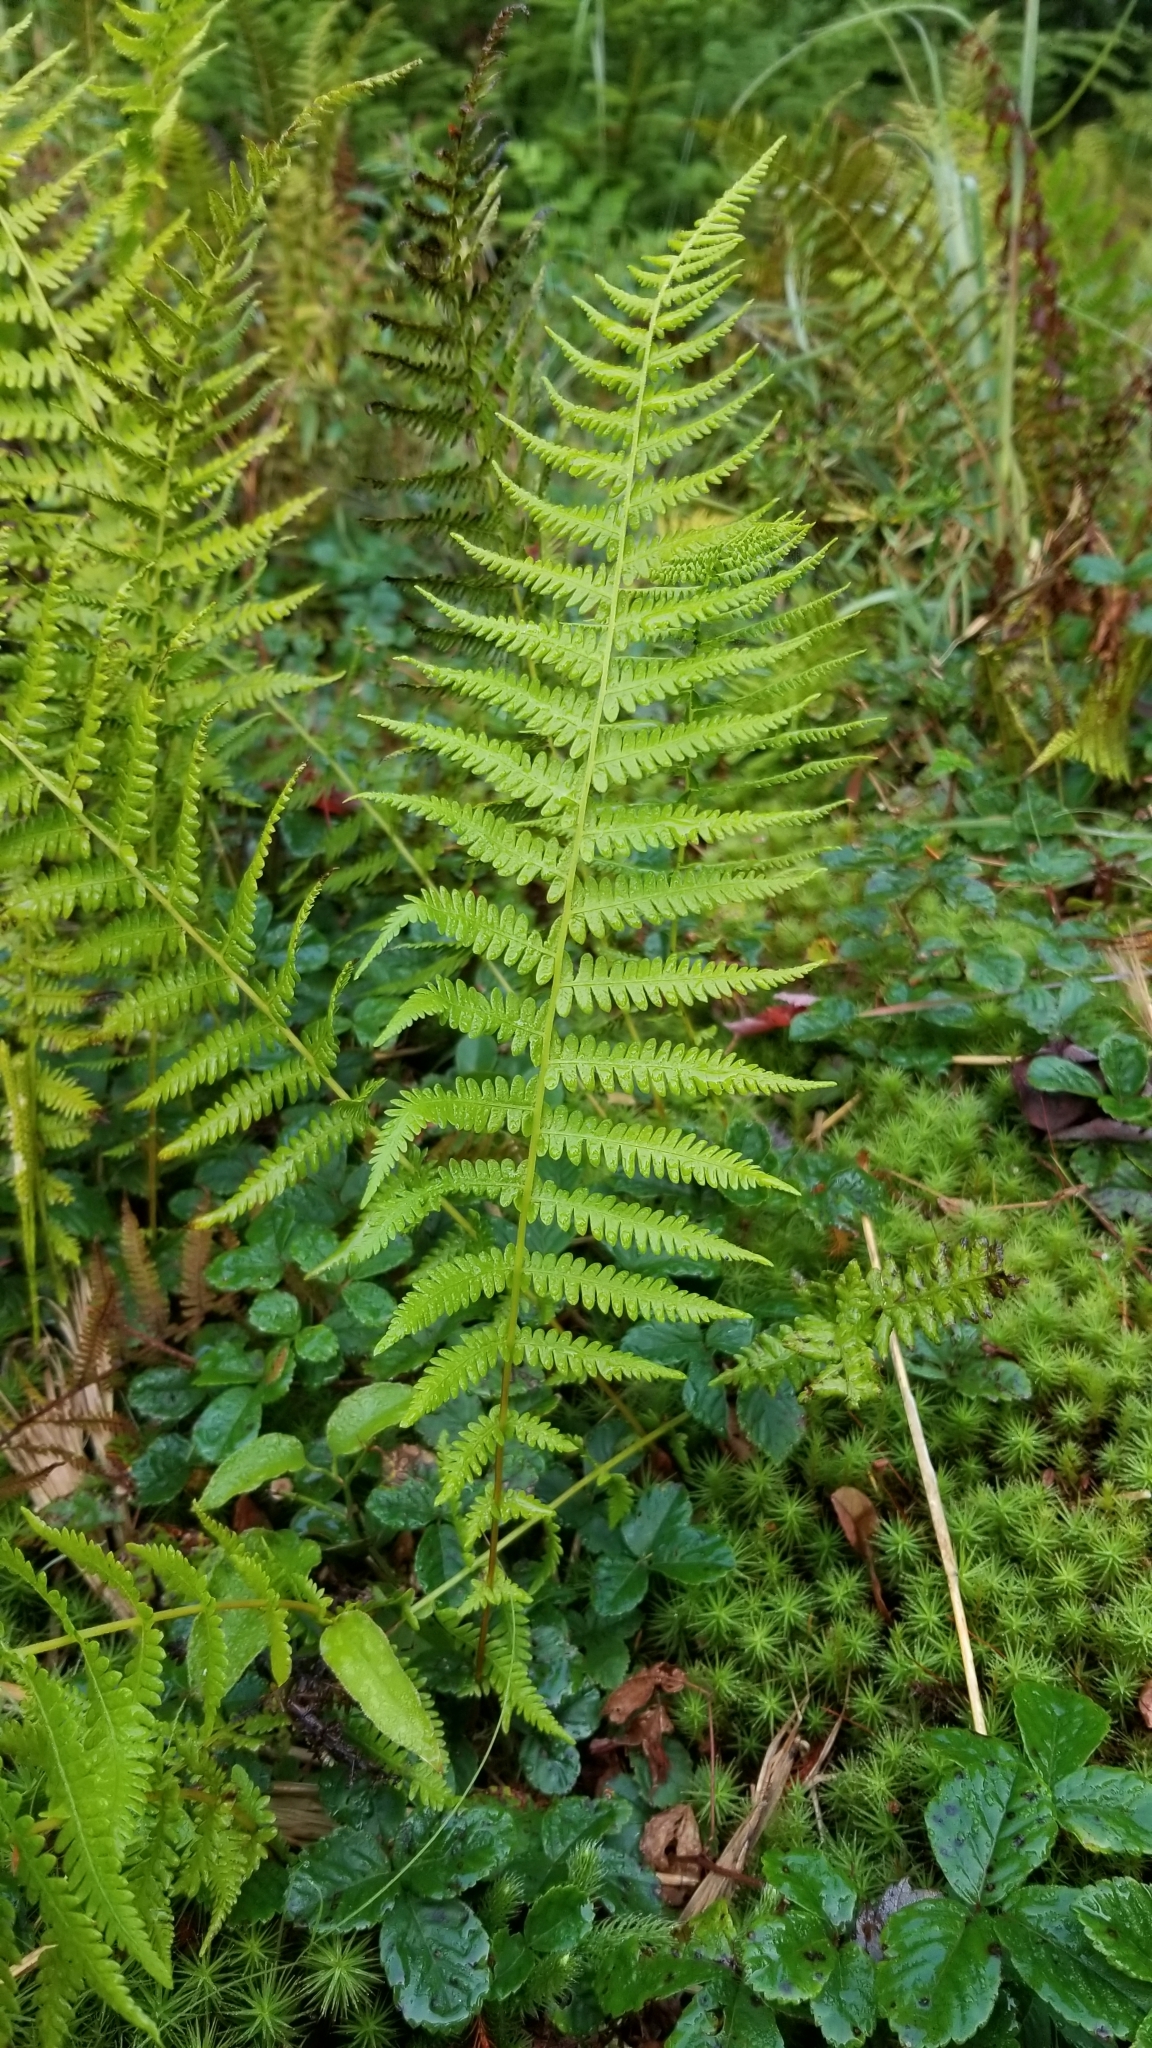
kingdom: Plantae
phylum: Tracheophyta
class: Polypodiopsida
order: Polypodiales
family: Thelypteridaceae
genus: Amauropelta
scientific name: Amauropelta noveboracensis
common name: New york fern
